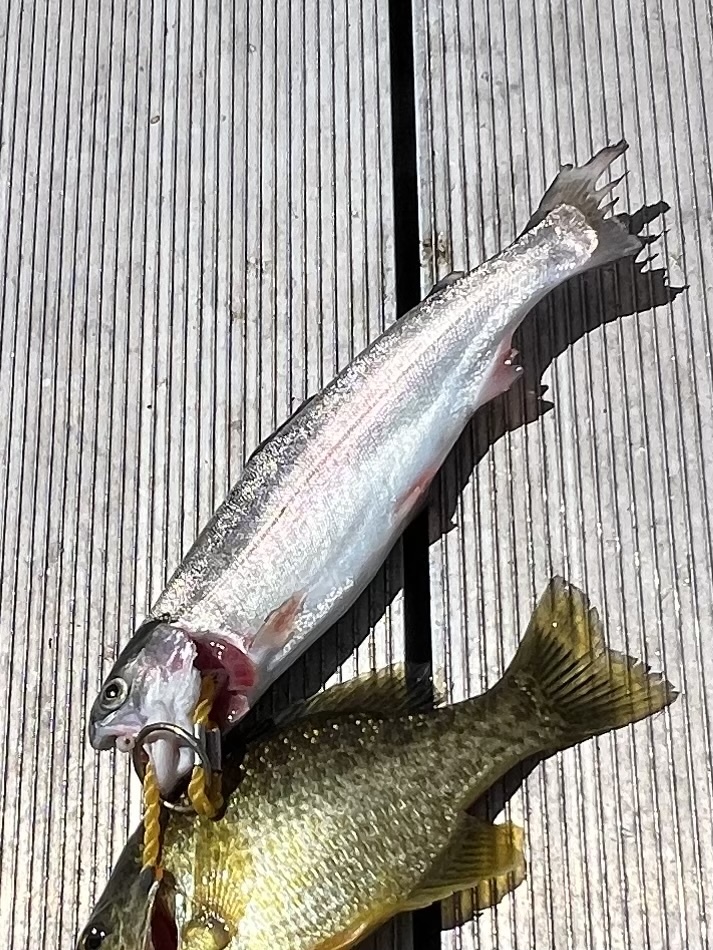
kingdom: Animalia
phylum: Chordata
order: Salmoniformes
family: Salmonidae
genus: Oncorhynchus
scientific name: Oncorhynchus mykiss
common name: Rainbow trout
